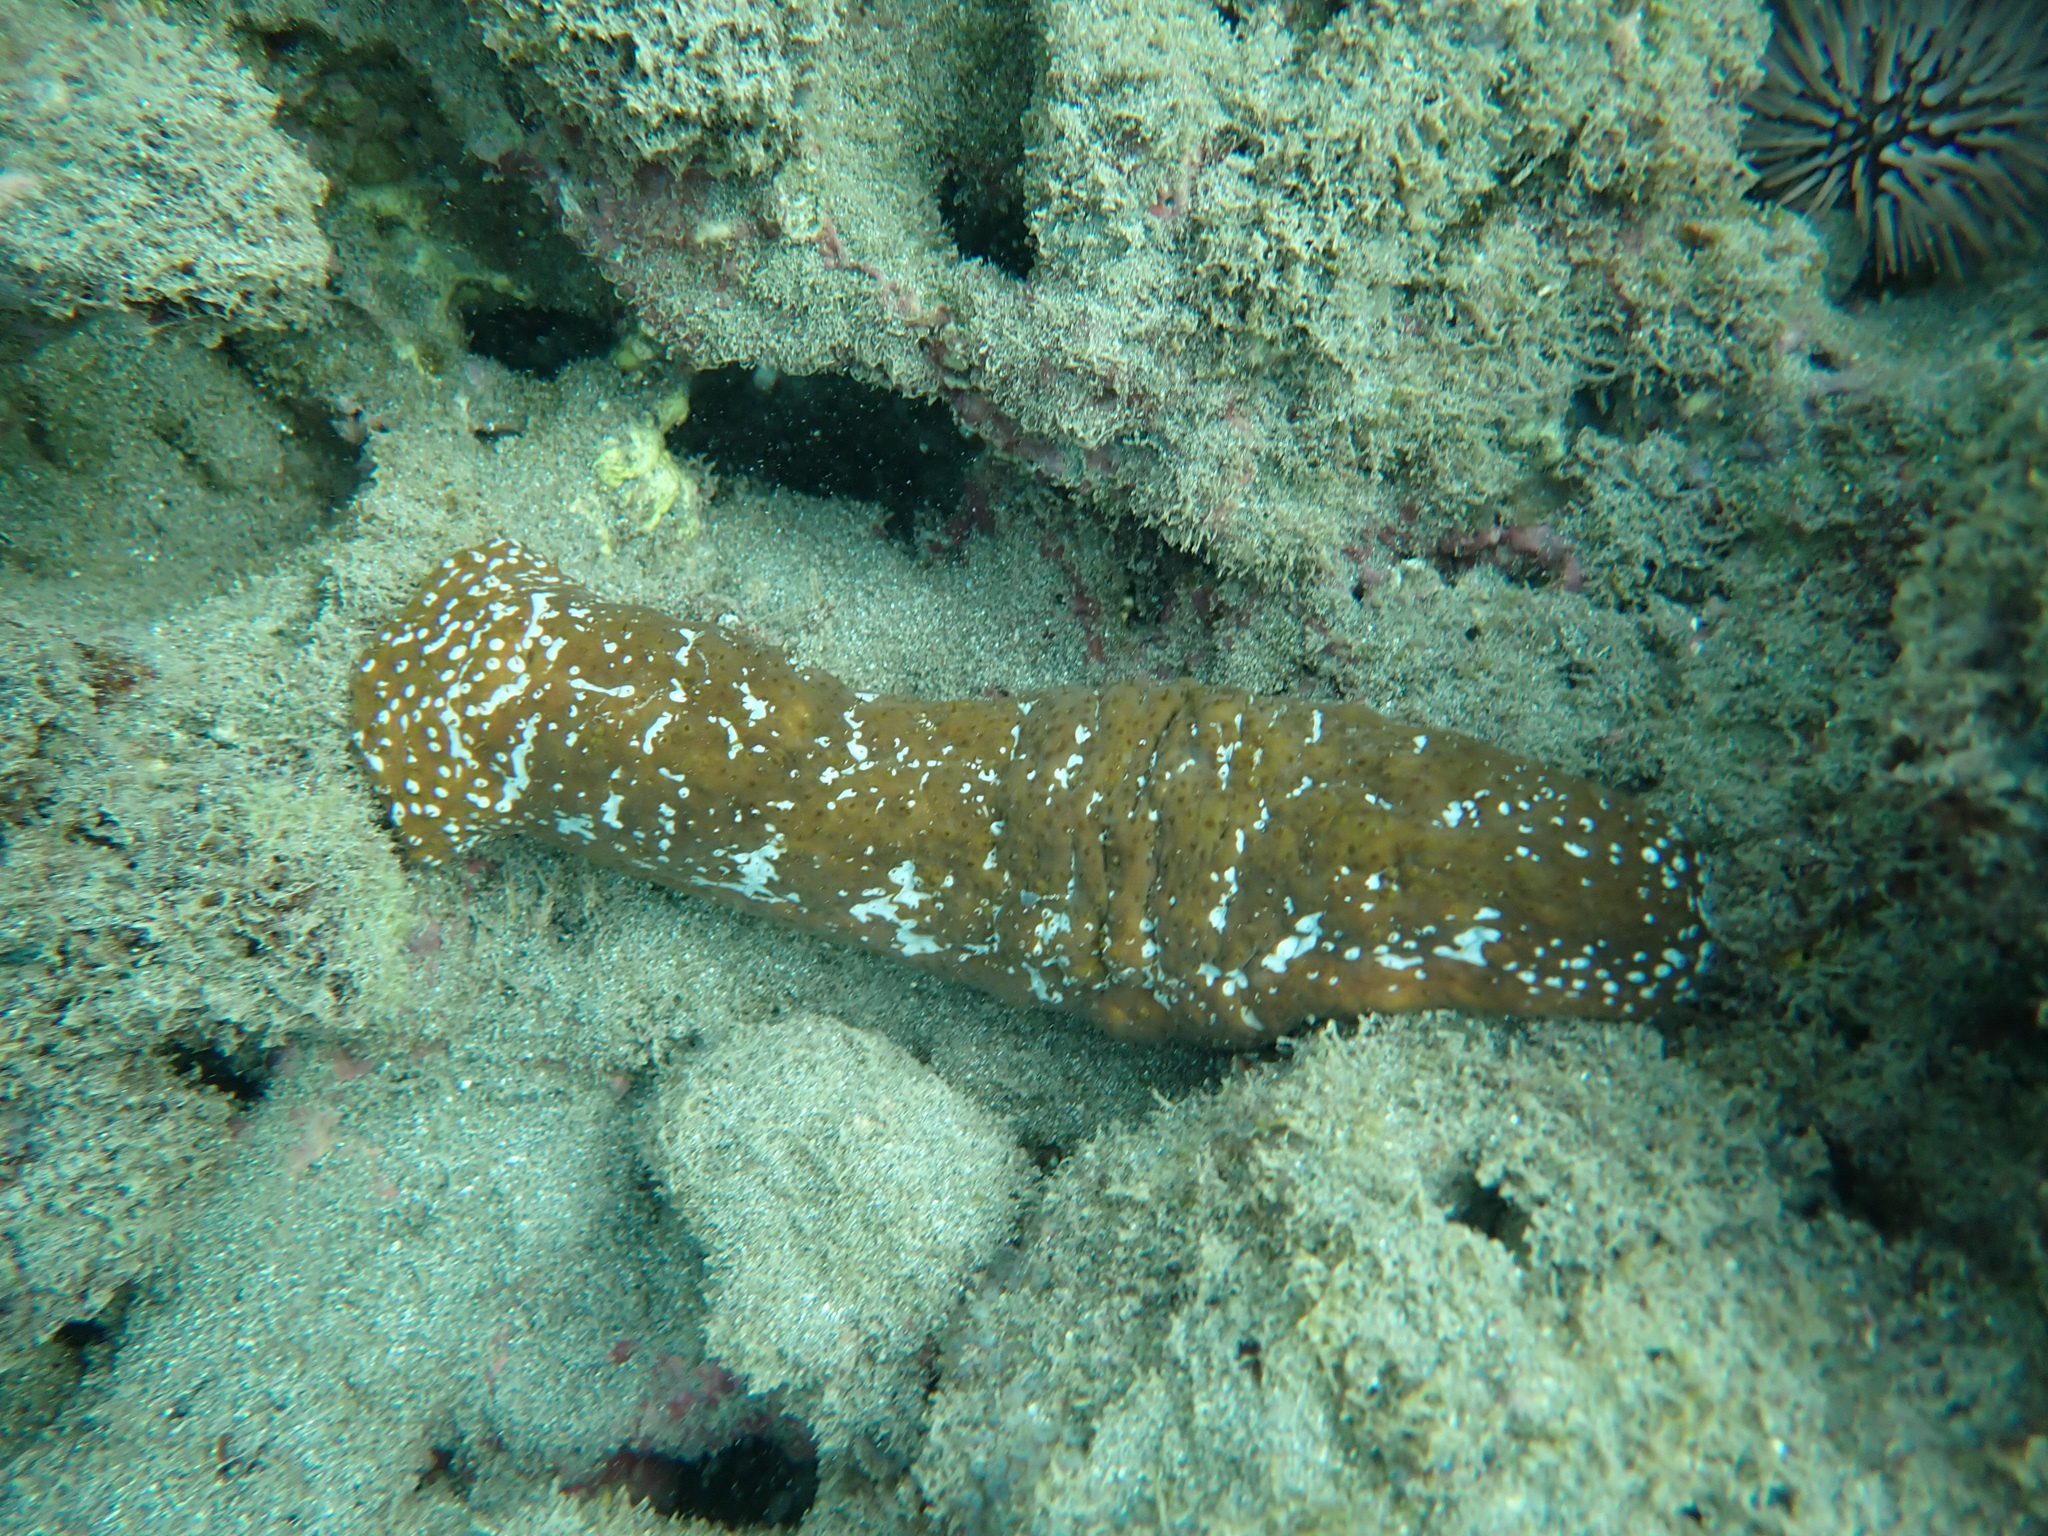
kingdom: Animalia
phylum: Echinodermata
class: Holothuroidea
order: Holothuriida
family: Holothuriidae
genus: Actinopyga
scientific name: Actinopyga varians
